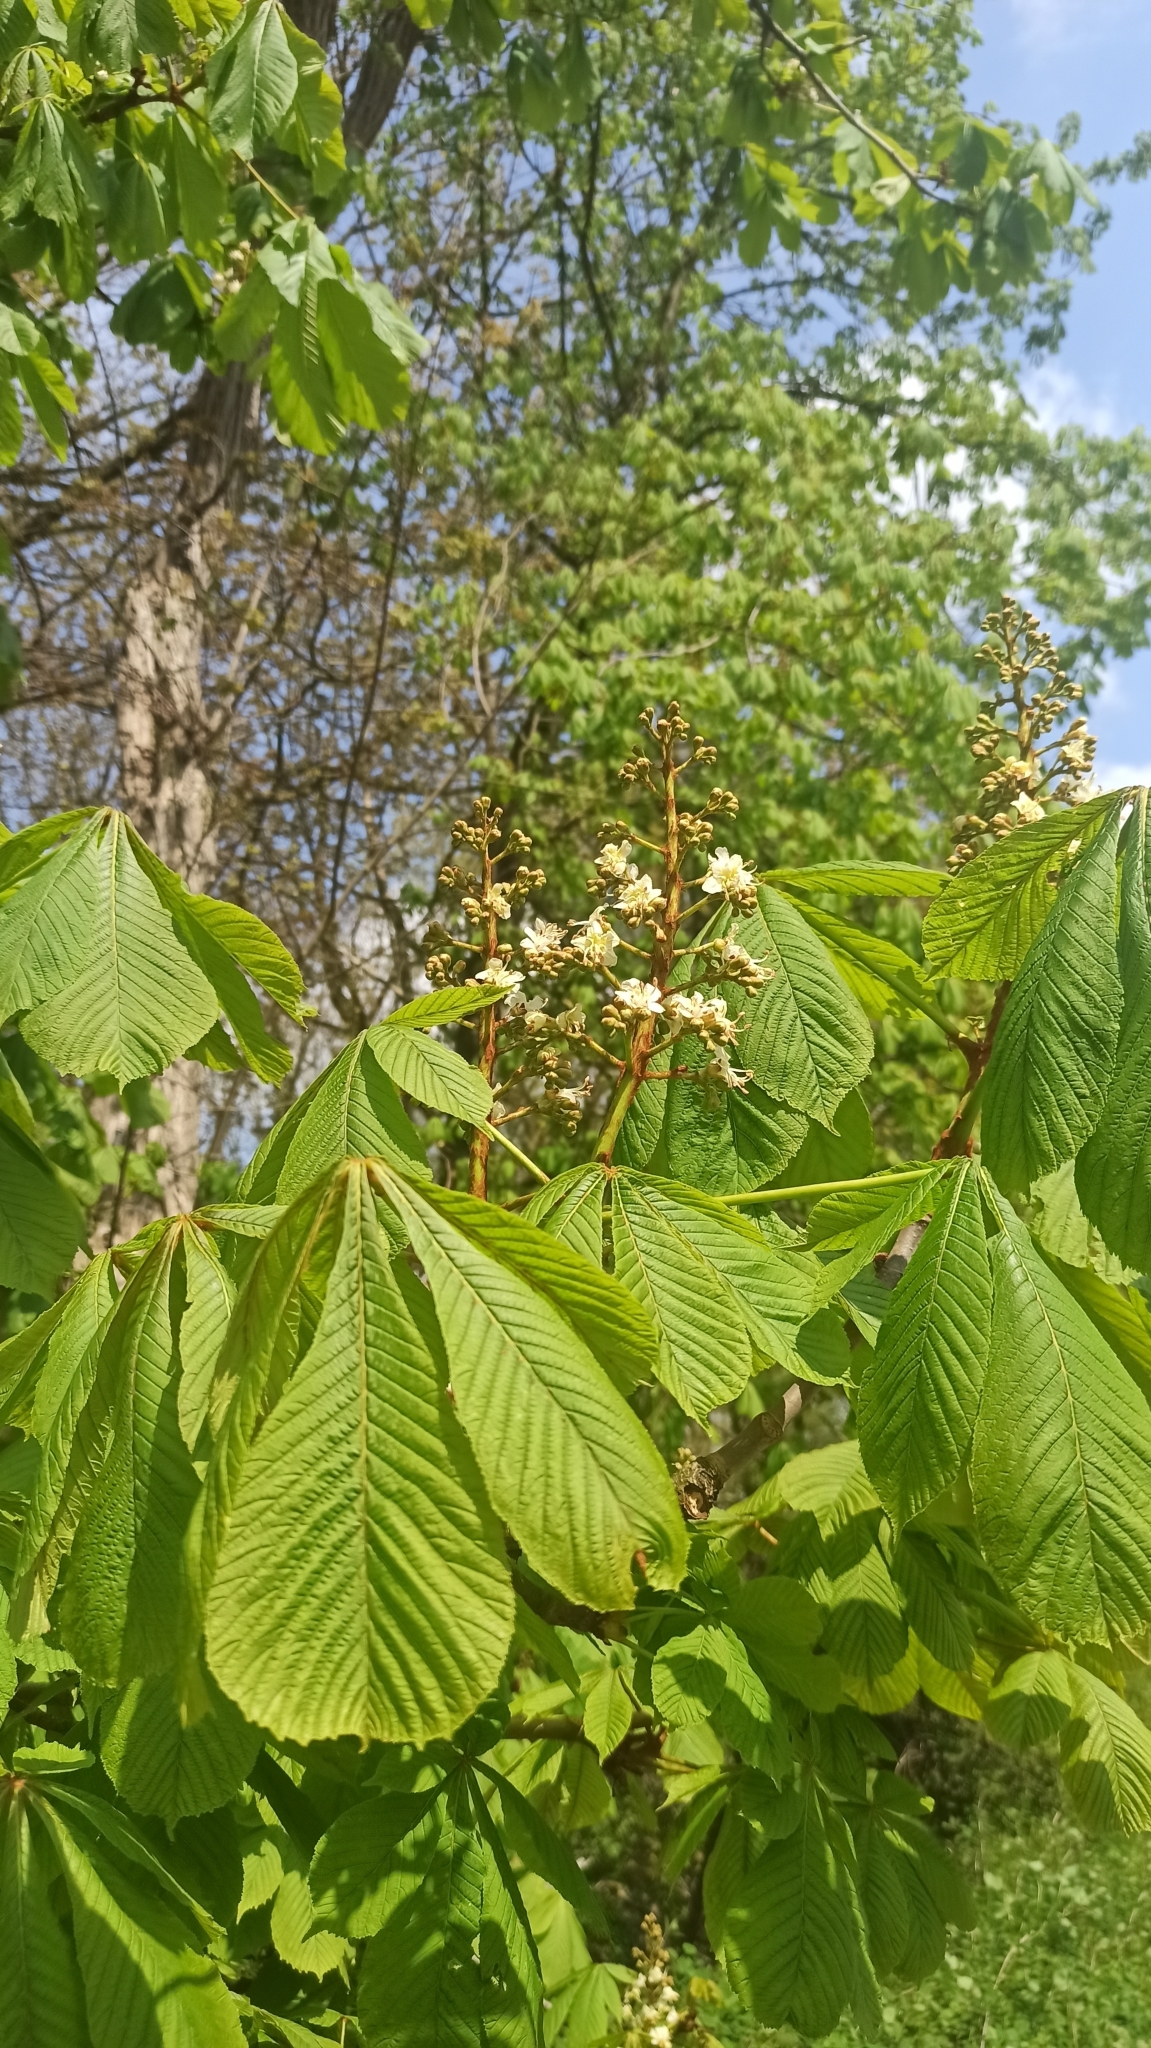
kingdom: Plantae
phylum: Tracheophyta
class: Magnoliopsida
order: Sapindales
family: Sapindaceae
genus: Aesculus
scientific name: Aesculus hippocastanum
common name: Horse-chestnut
